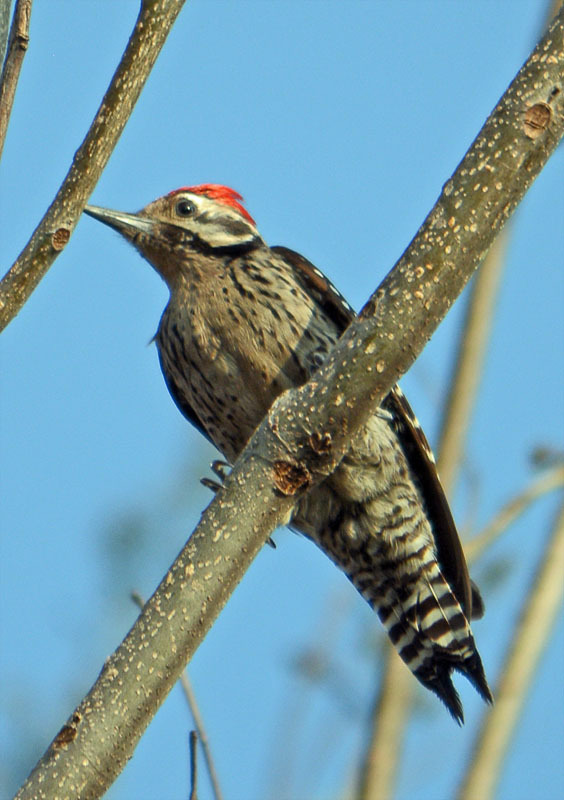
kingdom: Animalia
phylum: Chordata
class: Aves
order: Piciformes
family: Picidae
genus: Dryobates
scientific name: Dryobates scalaris
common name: Ladder-backed woodpecker
